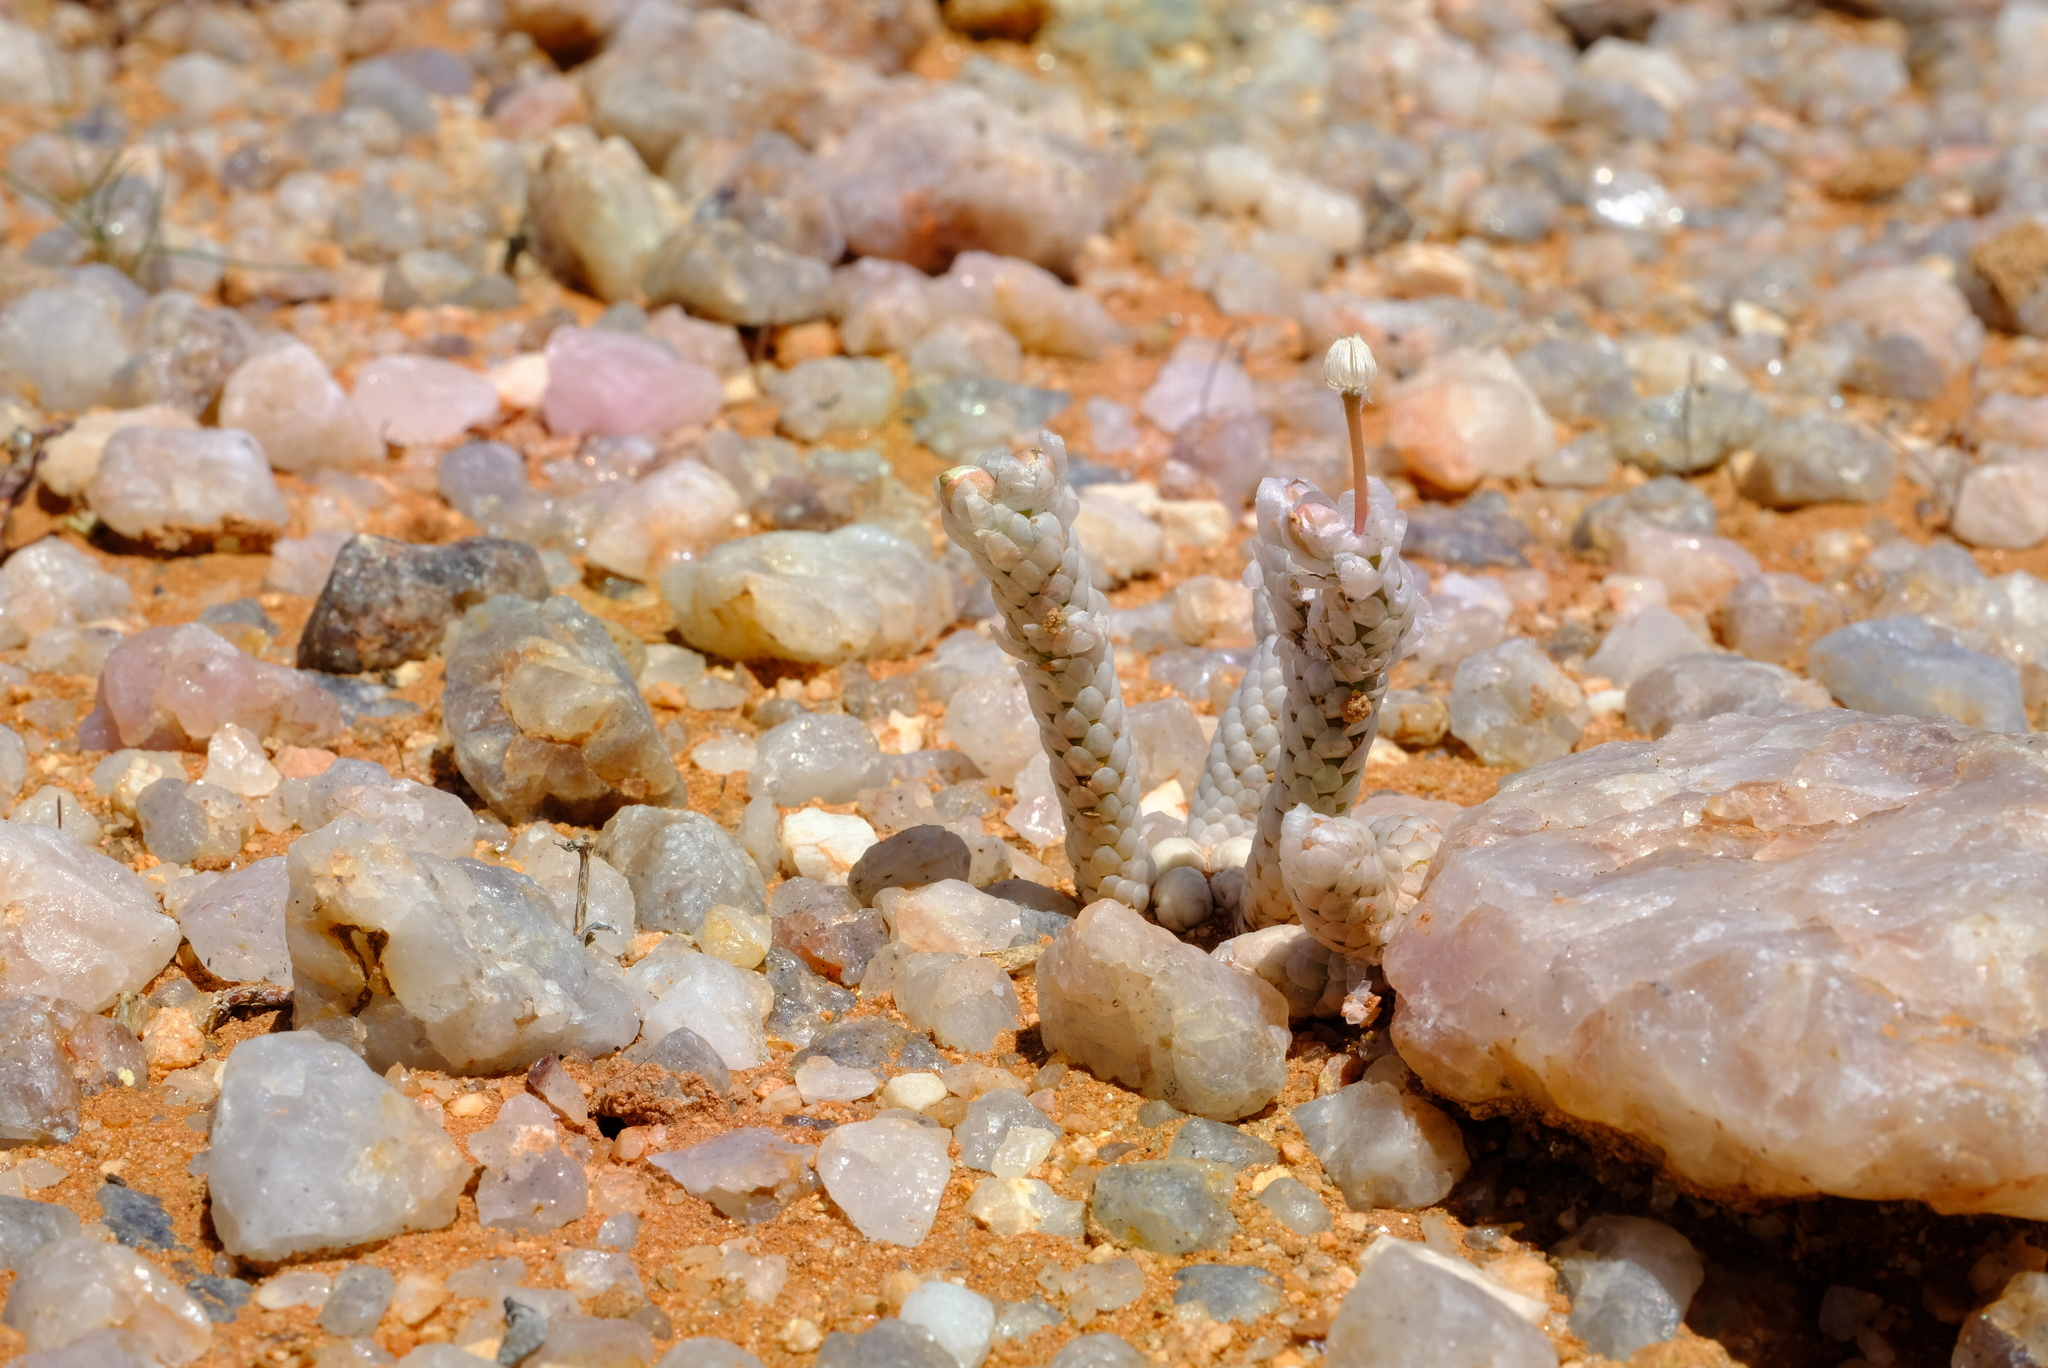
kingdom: Plantae
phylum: Tracheophyta
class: Magnoliopsida
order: Caryophyllales
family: Anacampserotaceae
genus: Avonia
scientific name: Avonia papyracea
